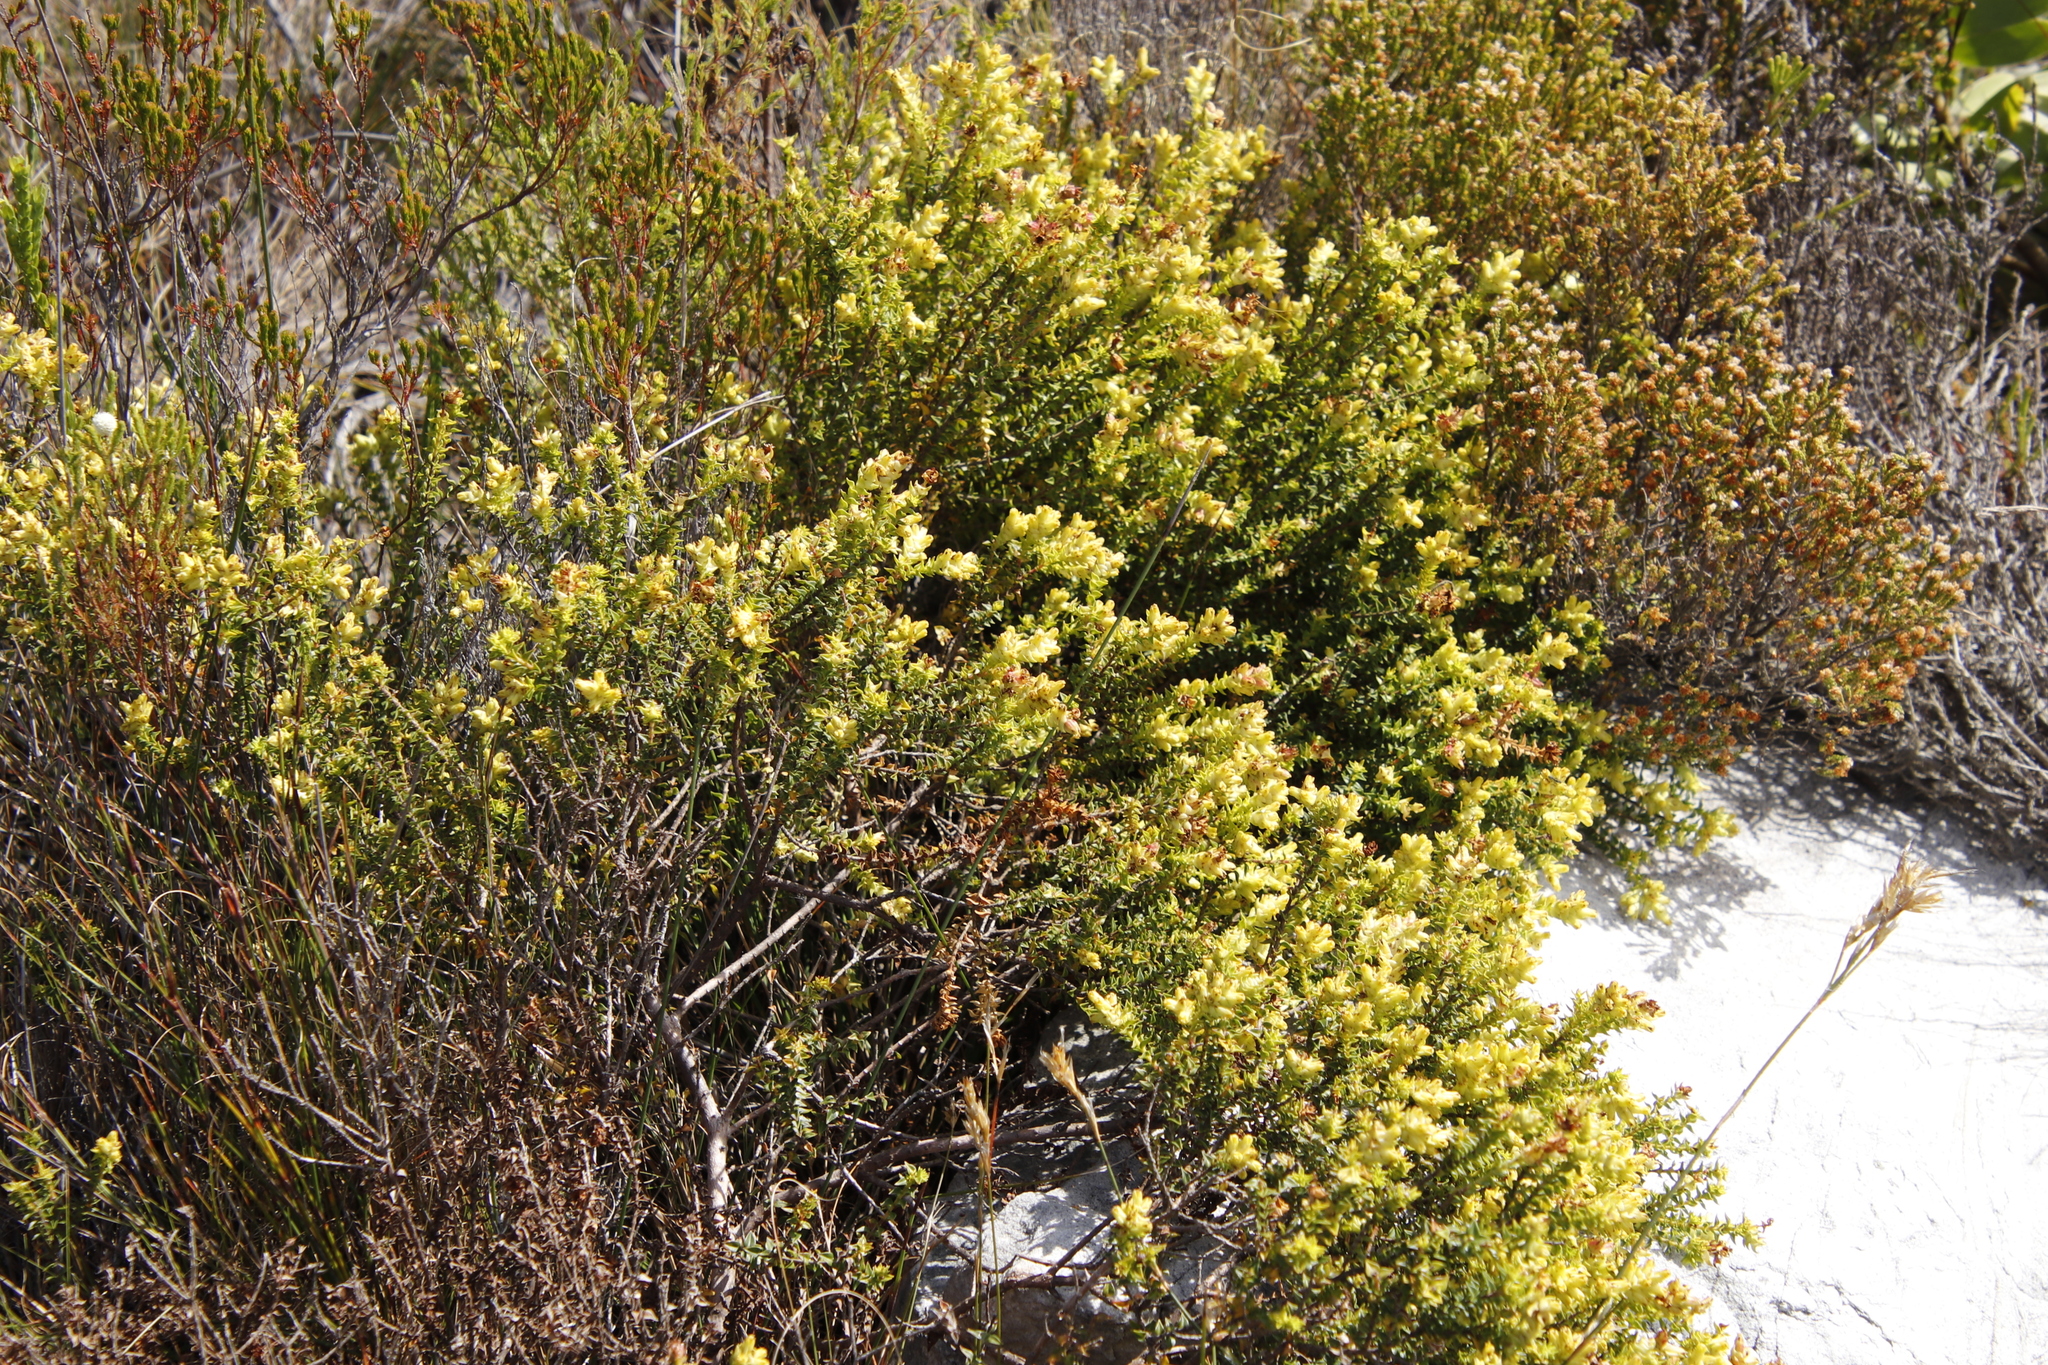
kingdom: Plantae
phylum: Tracheophyta
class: Magnoliopsida
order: Myrtales
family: Penaeaceae
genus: Penaea
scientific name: Penaea mucronata
